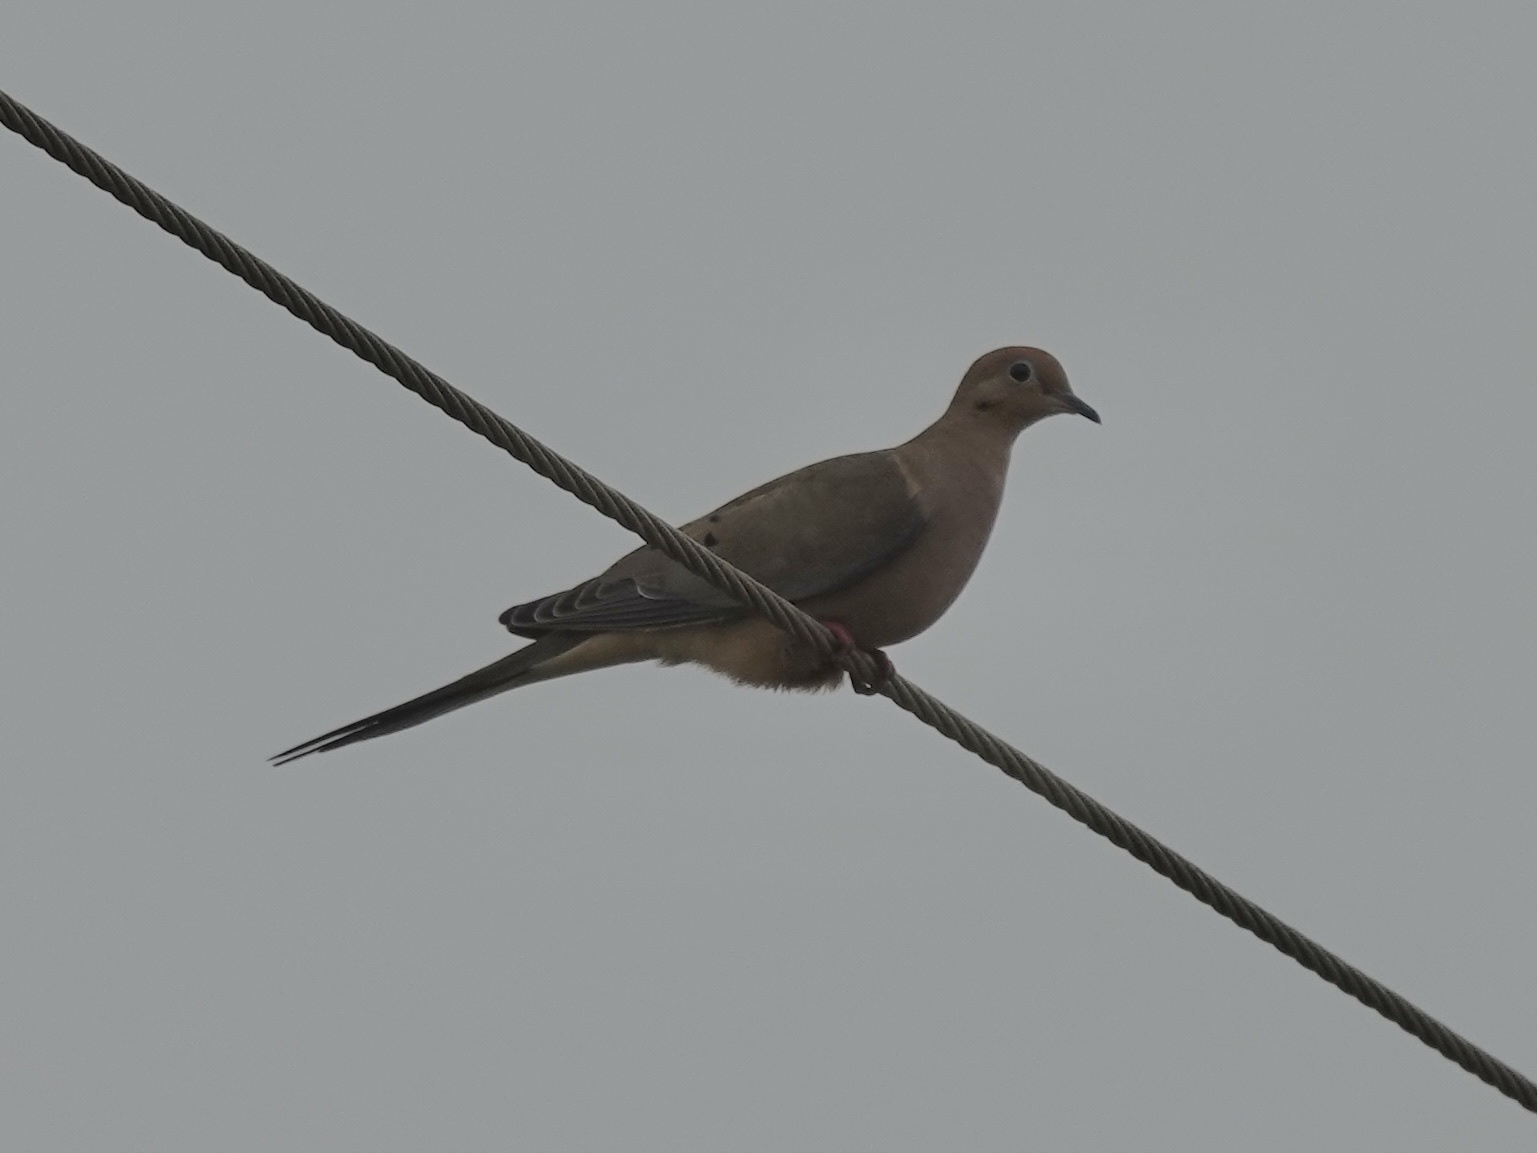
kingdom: Animalia
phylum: Chordata
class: Aves
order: Columbiformes
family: Columbidae
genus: Zenaida
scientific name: Zenaida macroura
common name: Mourning dove
